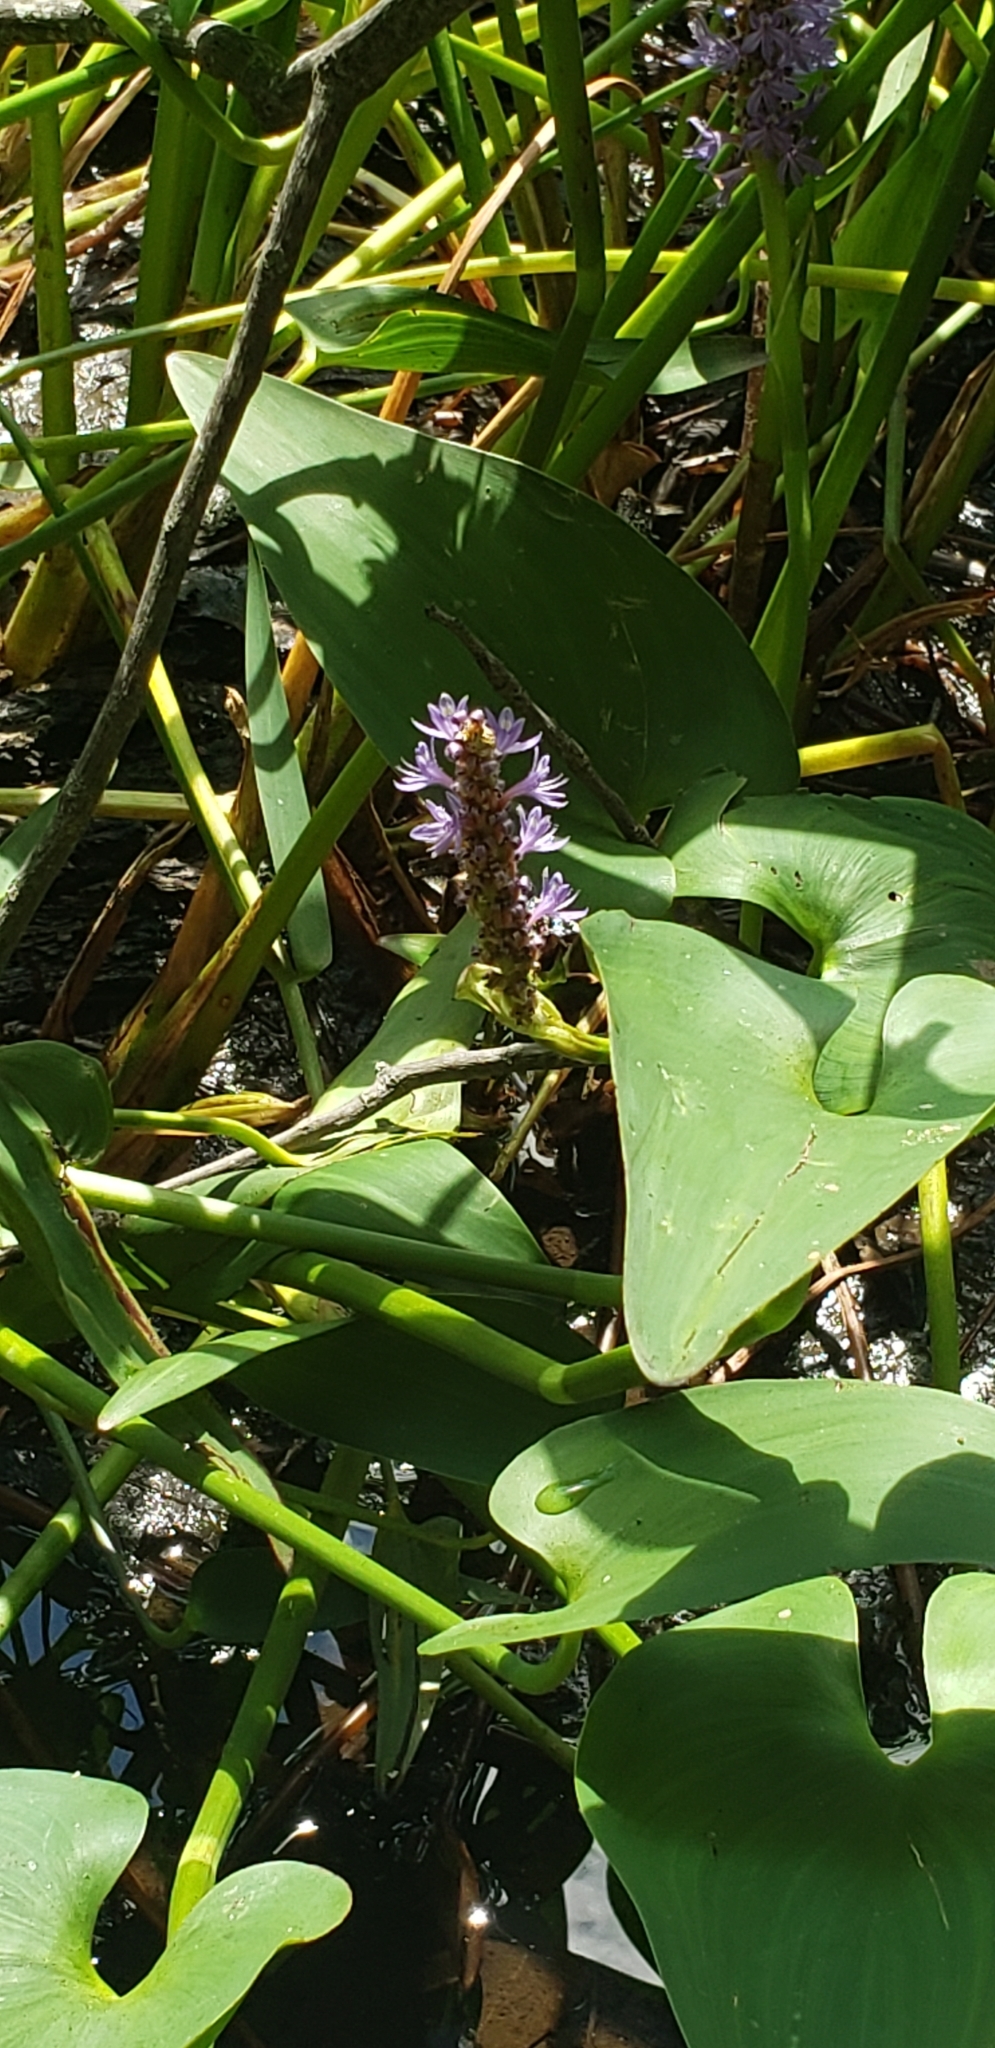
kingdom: Plantae
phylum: Tracheophyta
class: Liliopsida
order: Commelinales
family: Pontederiaceae
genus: Pontederia
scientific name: Pontederia cordata
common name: Pickerelweed
